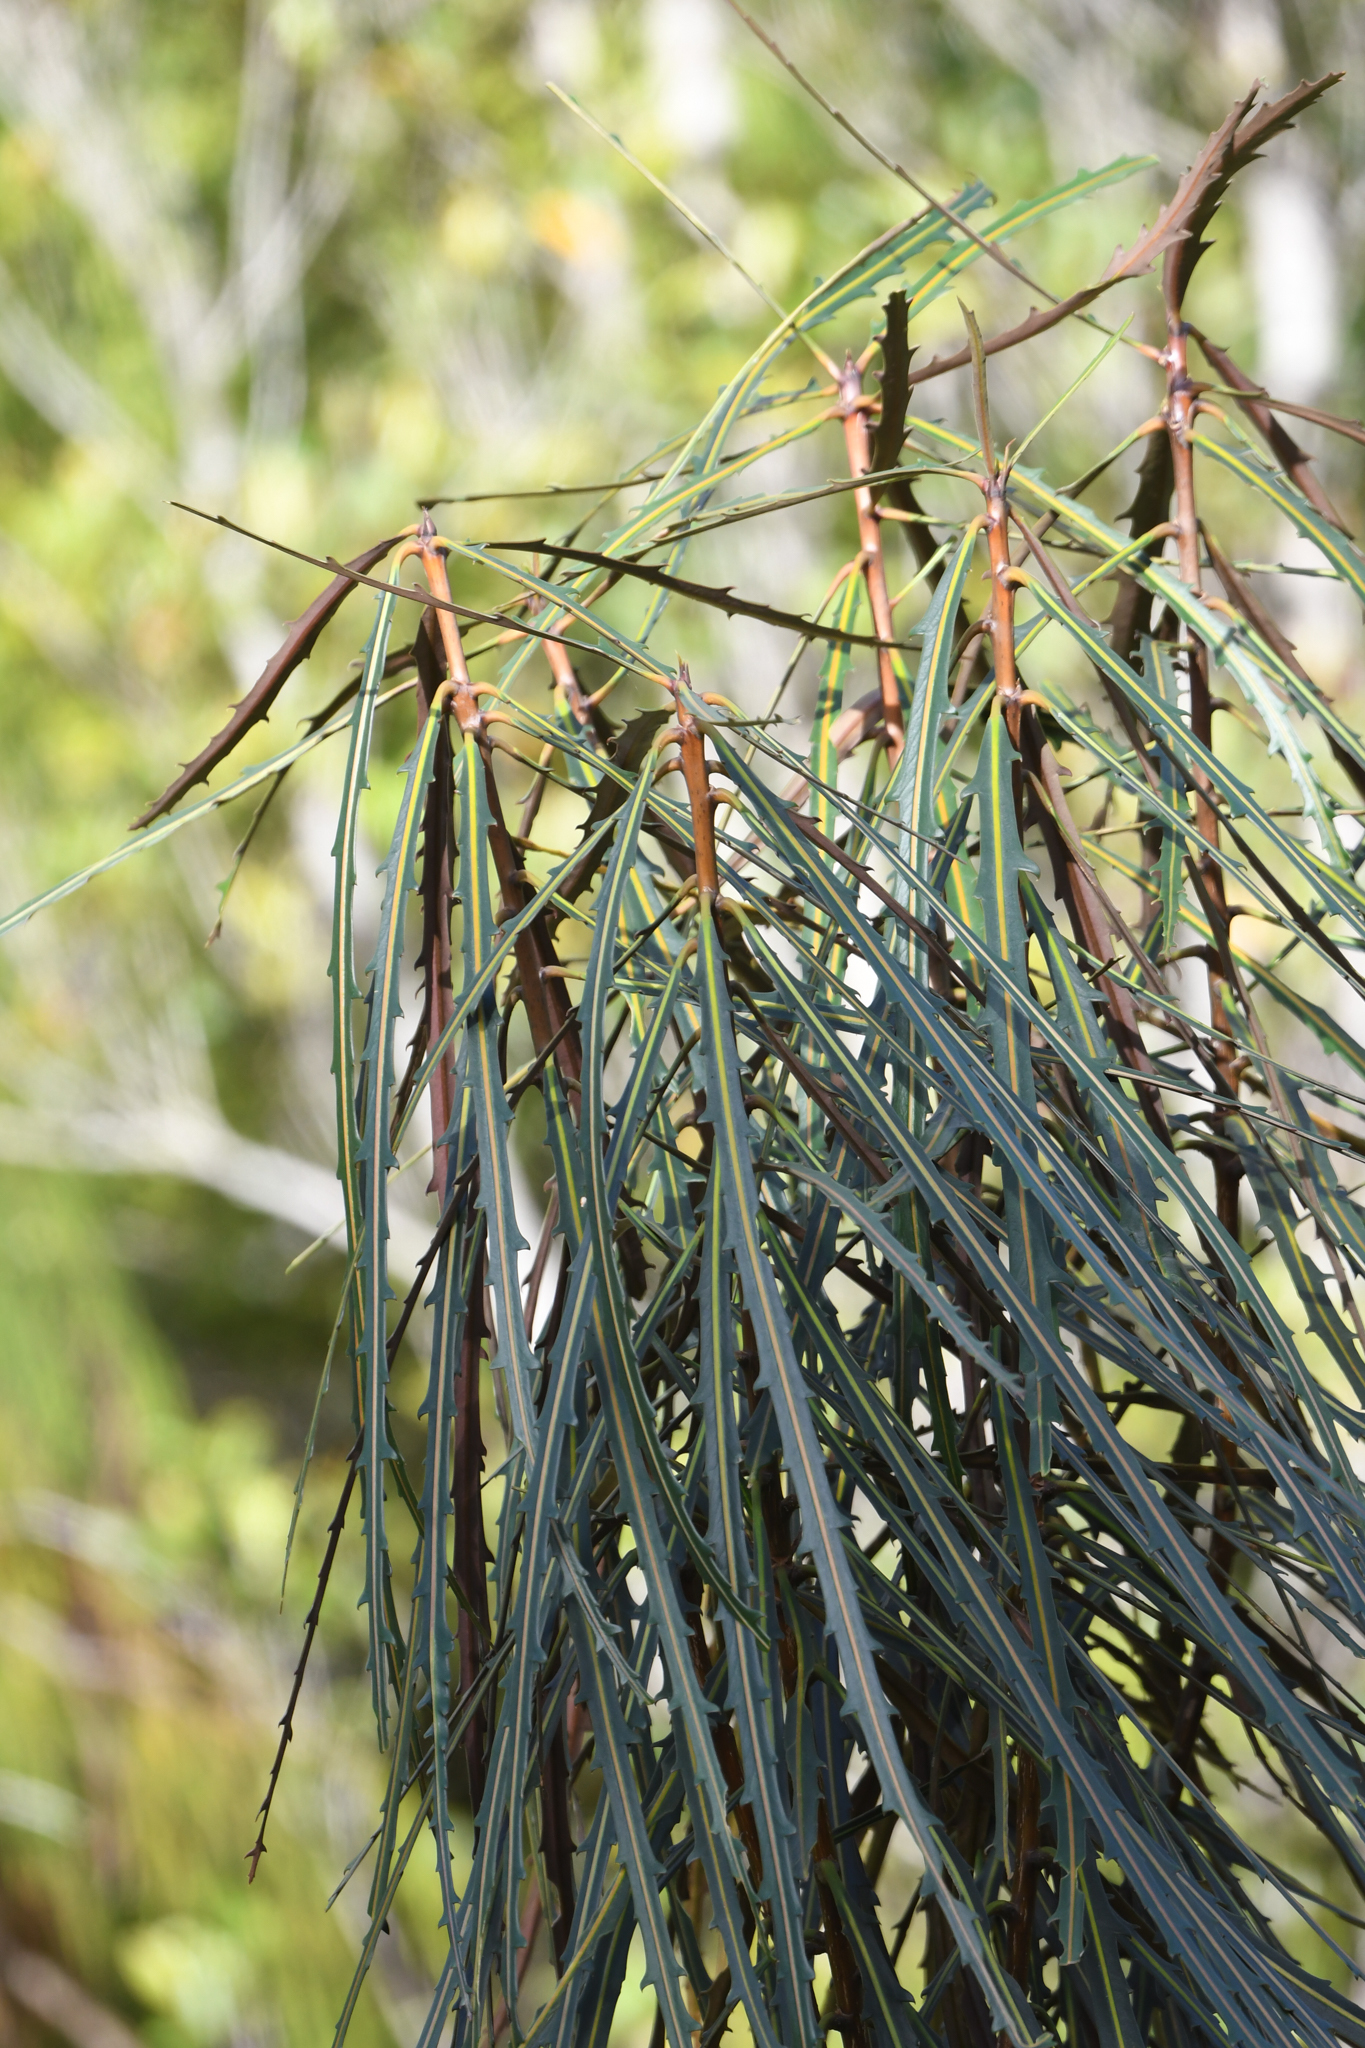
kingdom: Plantae
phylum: Tracheophyta
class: Magnoliopsida
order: Apiales
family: Araliaceae
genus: Pseudopanax
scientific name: Pseudopanax crassifolius
